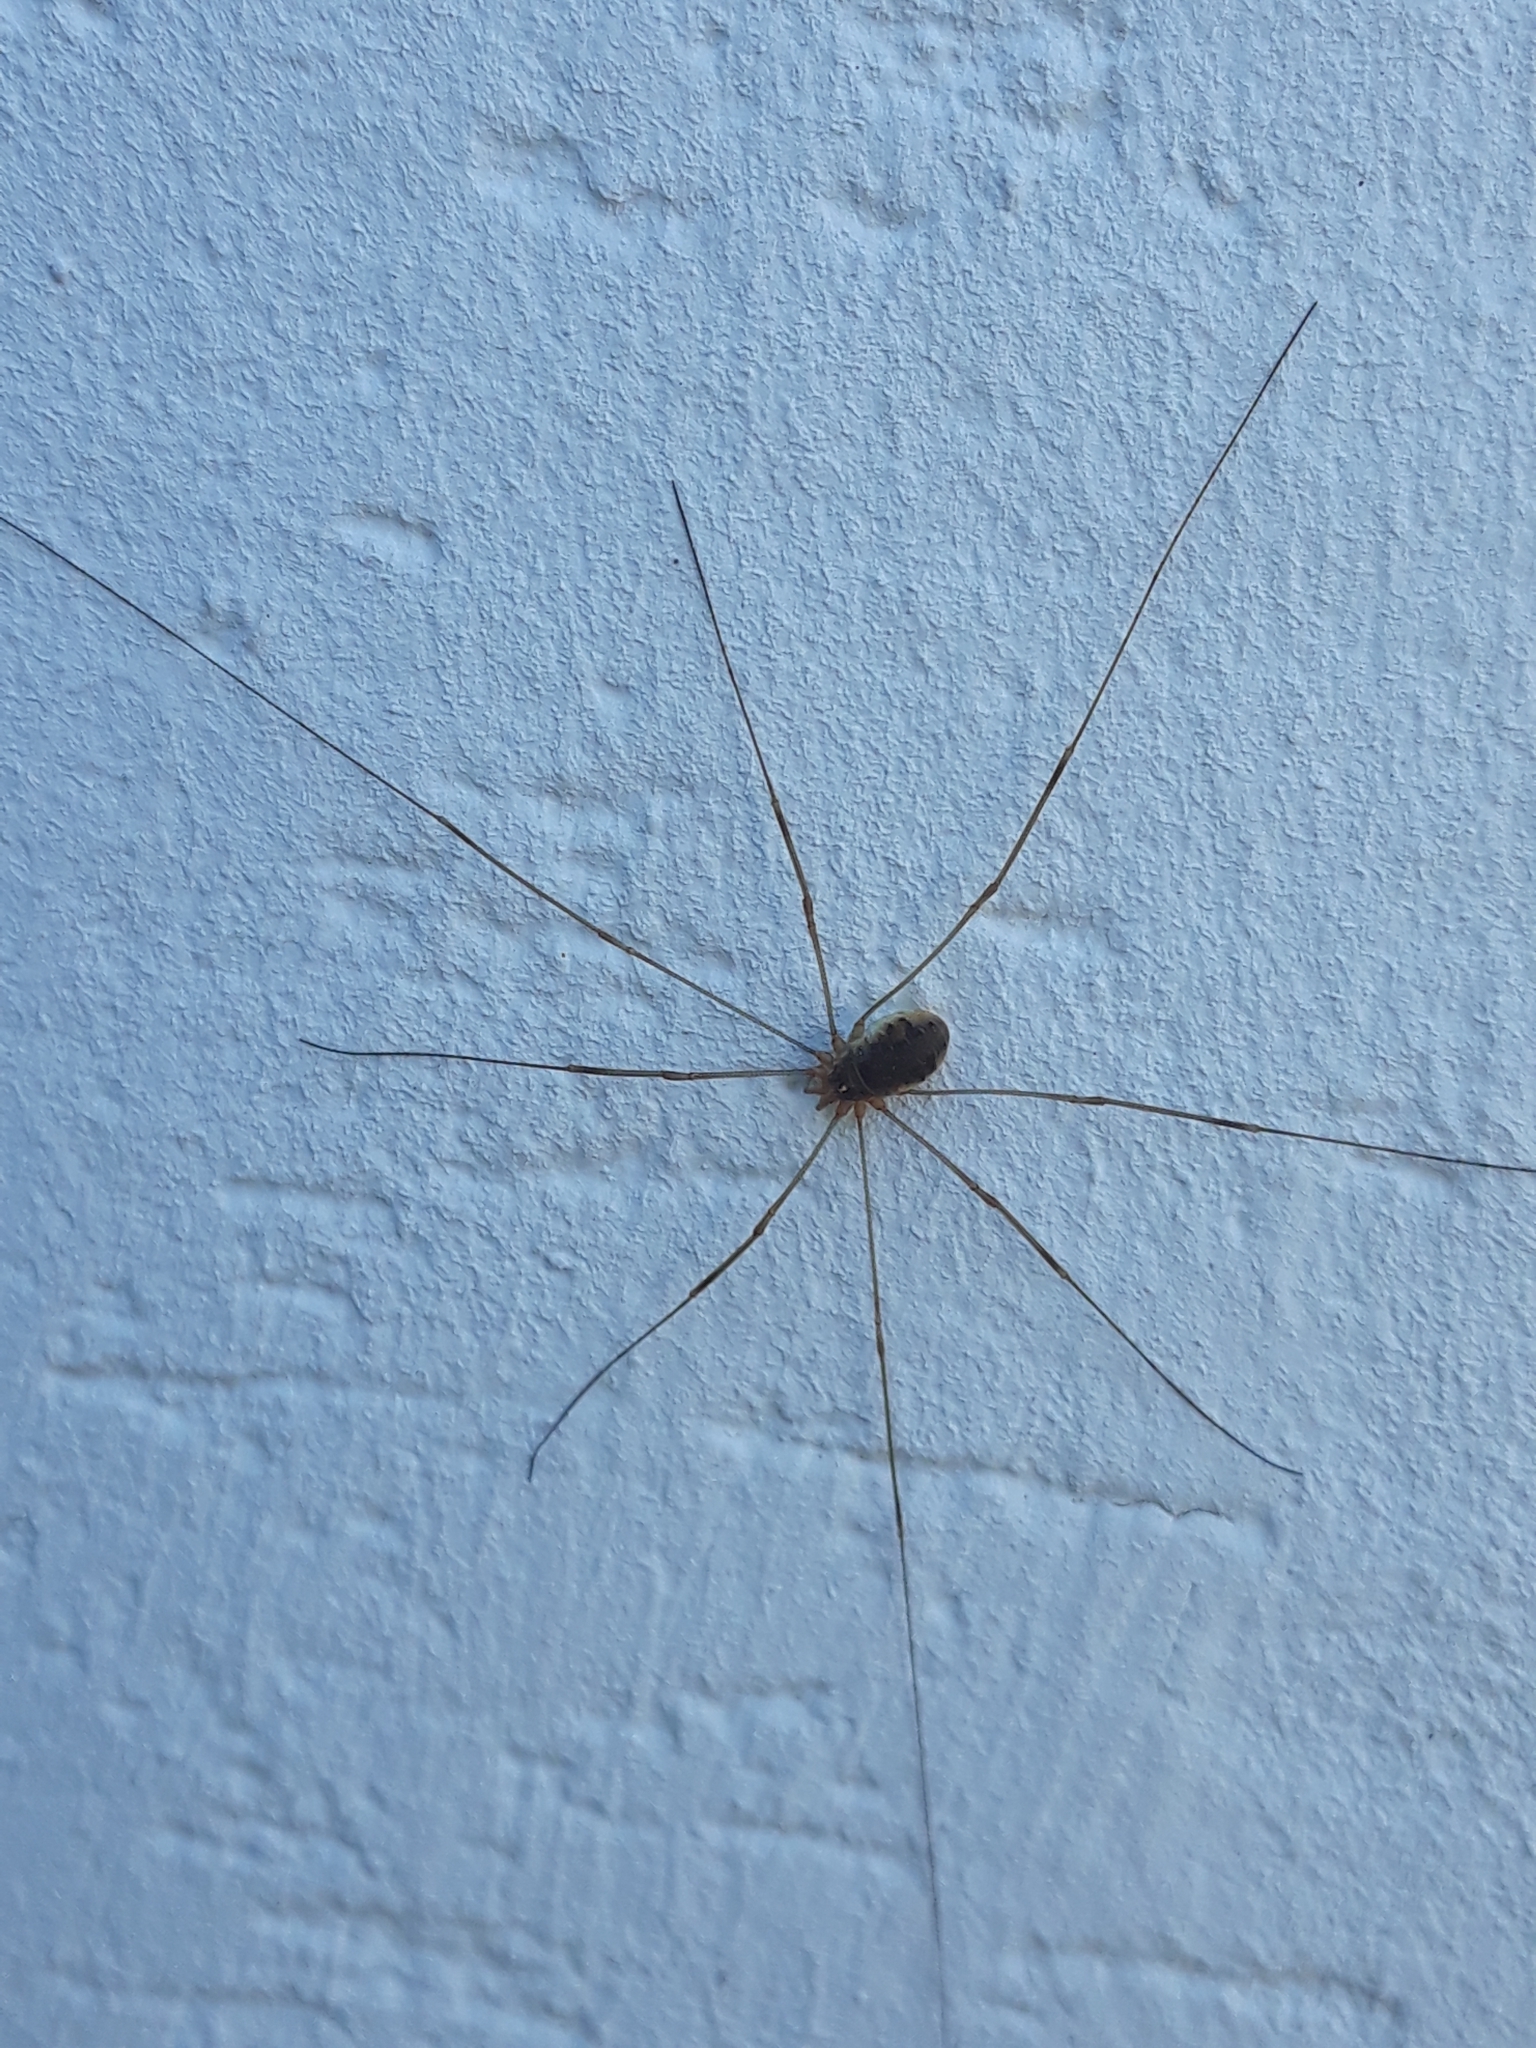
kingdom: Animalia
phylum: Arthropoda
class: Arachnida
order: Opiliones
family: Phalangiidae
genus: Opilio
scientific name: Opilio canestrinii
